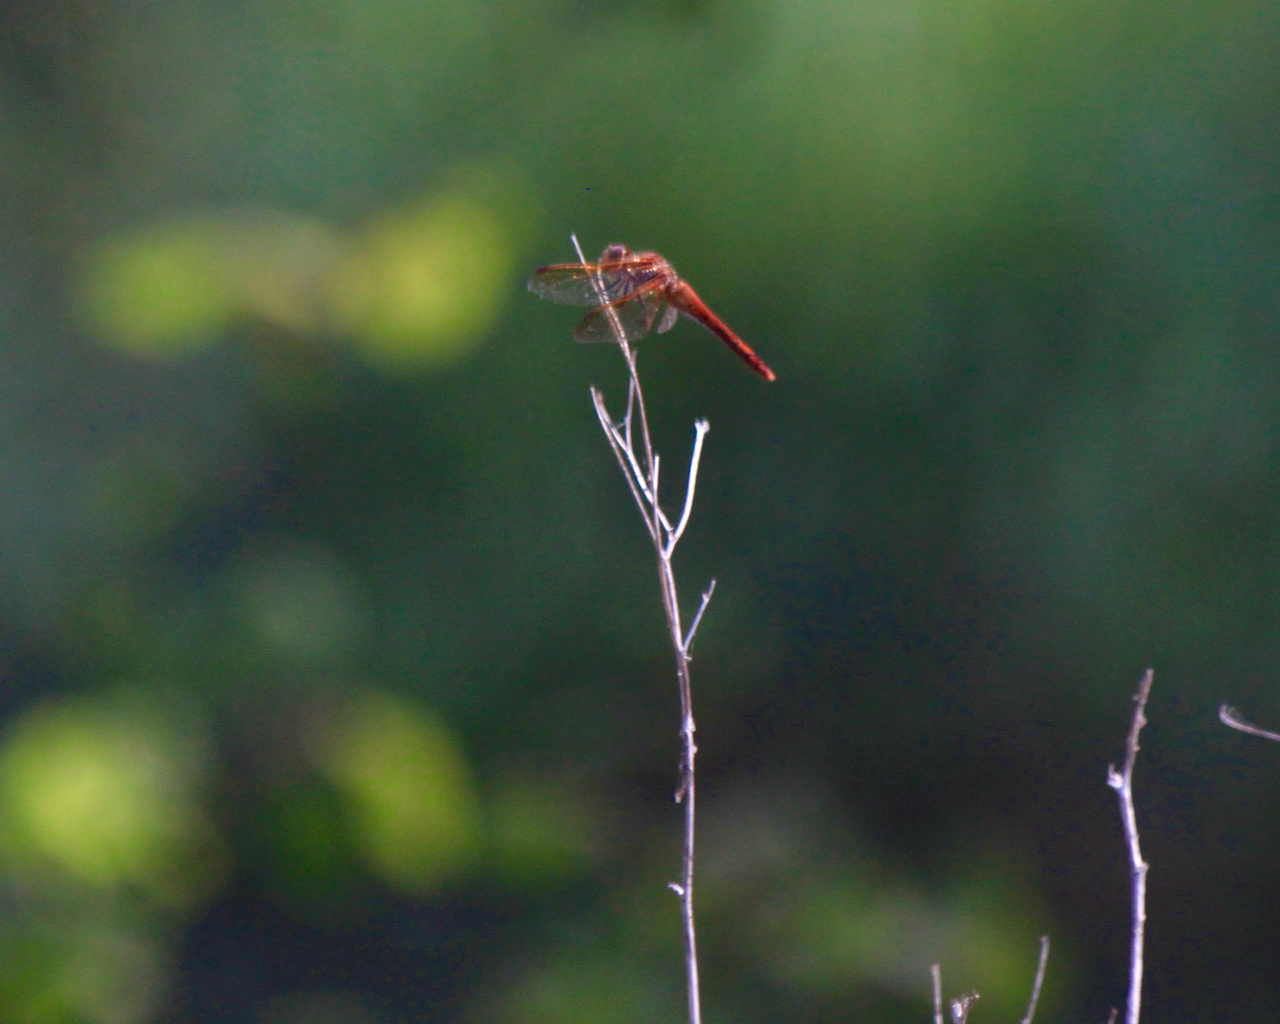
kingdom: Animalia
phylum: Arthropoda
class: Insecta
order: Odonata
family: Libellulidae
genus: Sympetrum
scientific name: Sympetrum madidum
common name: Red-veined meadowhawk
